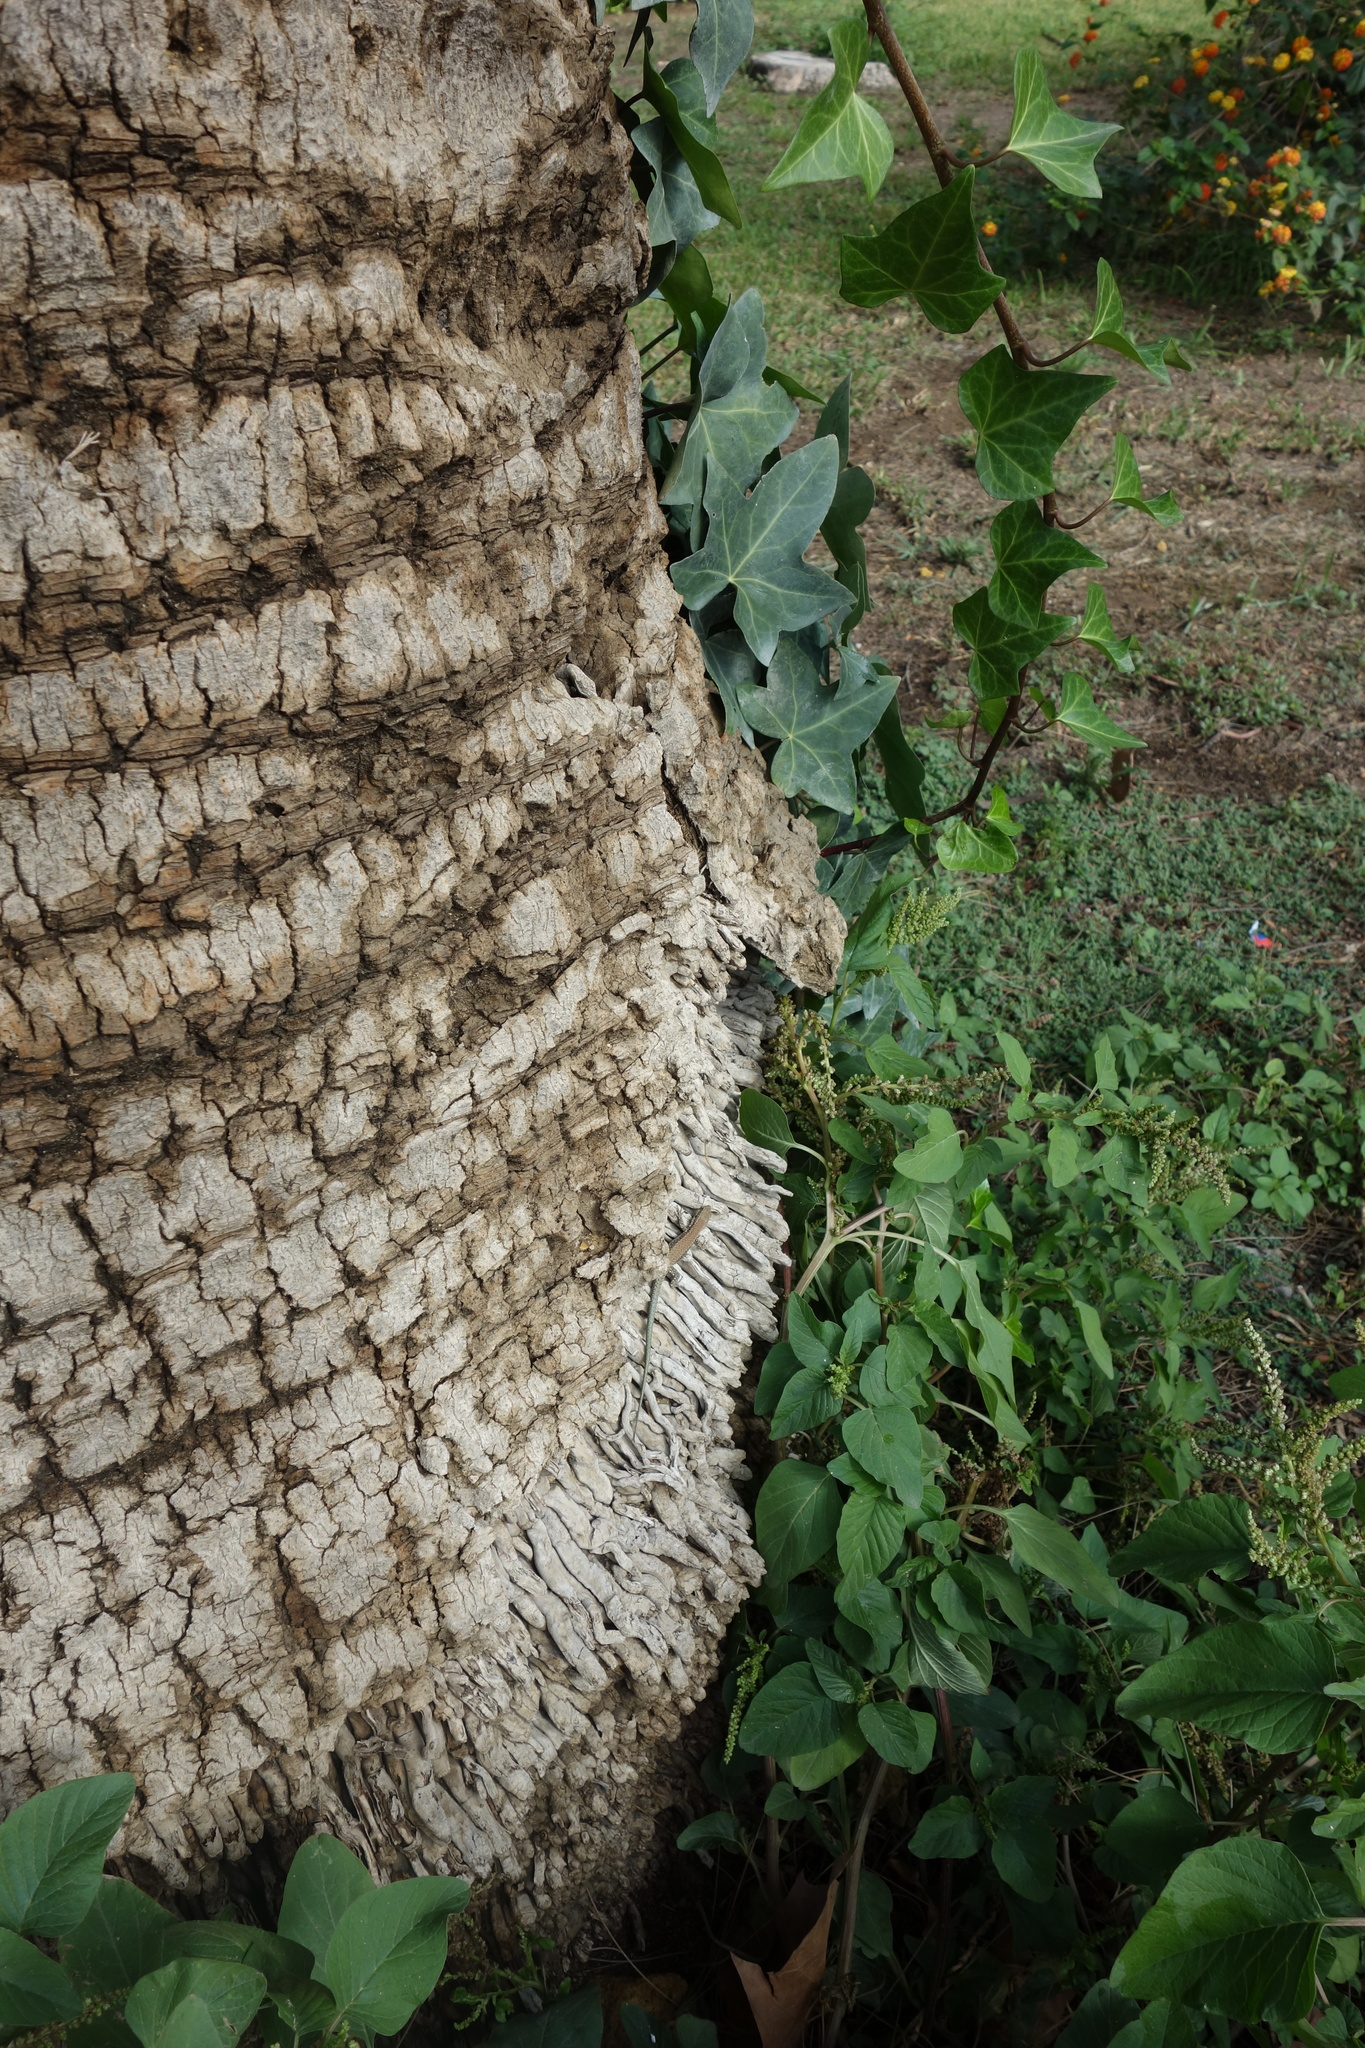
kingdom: Plantae
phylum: Tracheophyta
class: Magnoliopsida
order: Apiales
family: Araliaceae
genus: Hedera
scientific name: Hedera helix
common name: Ivy
